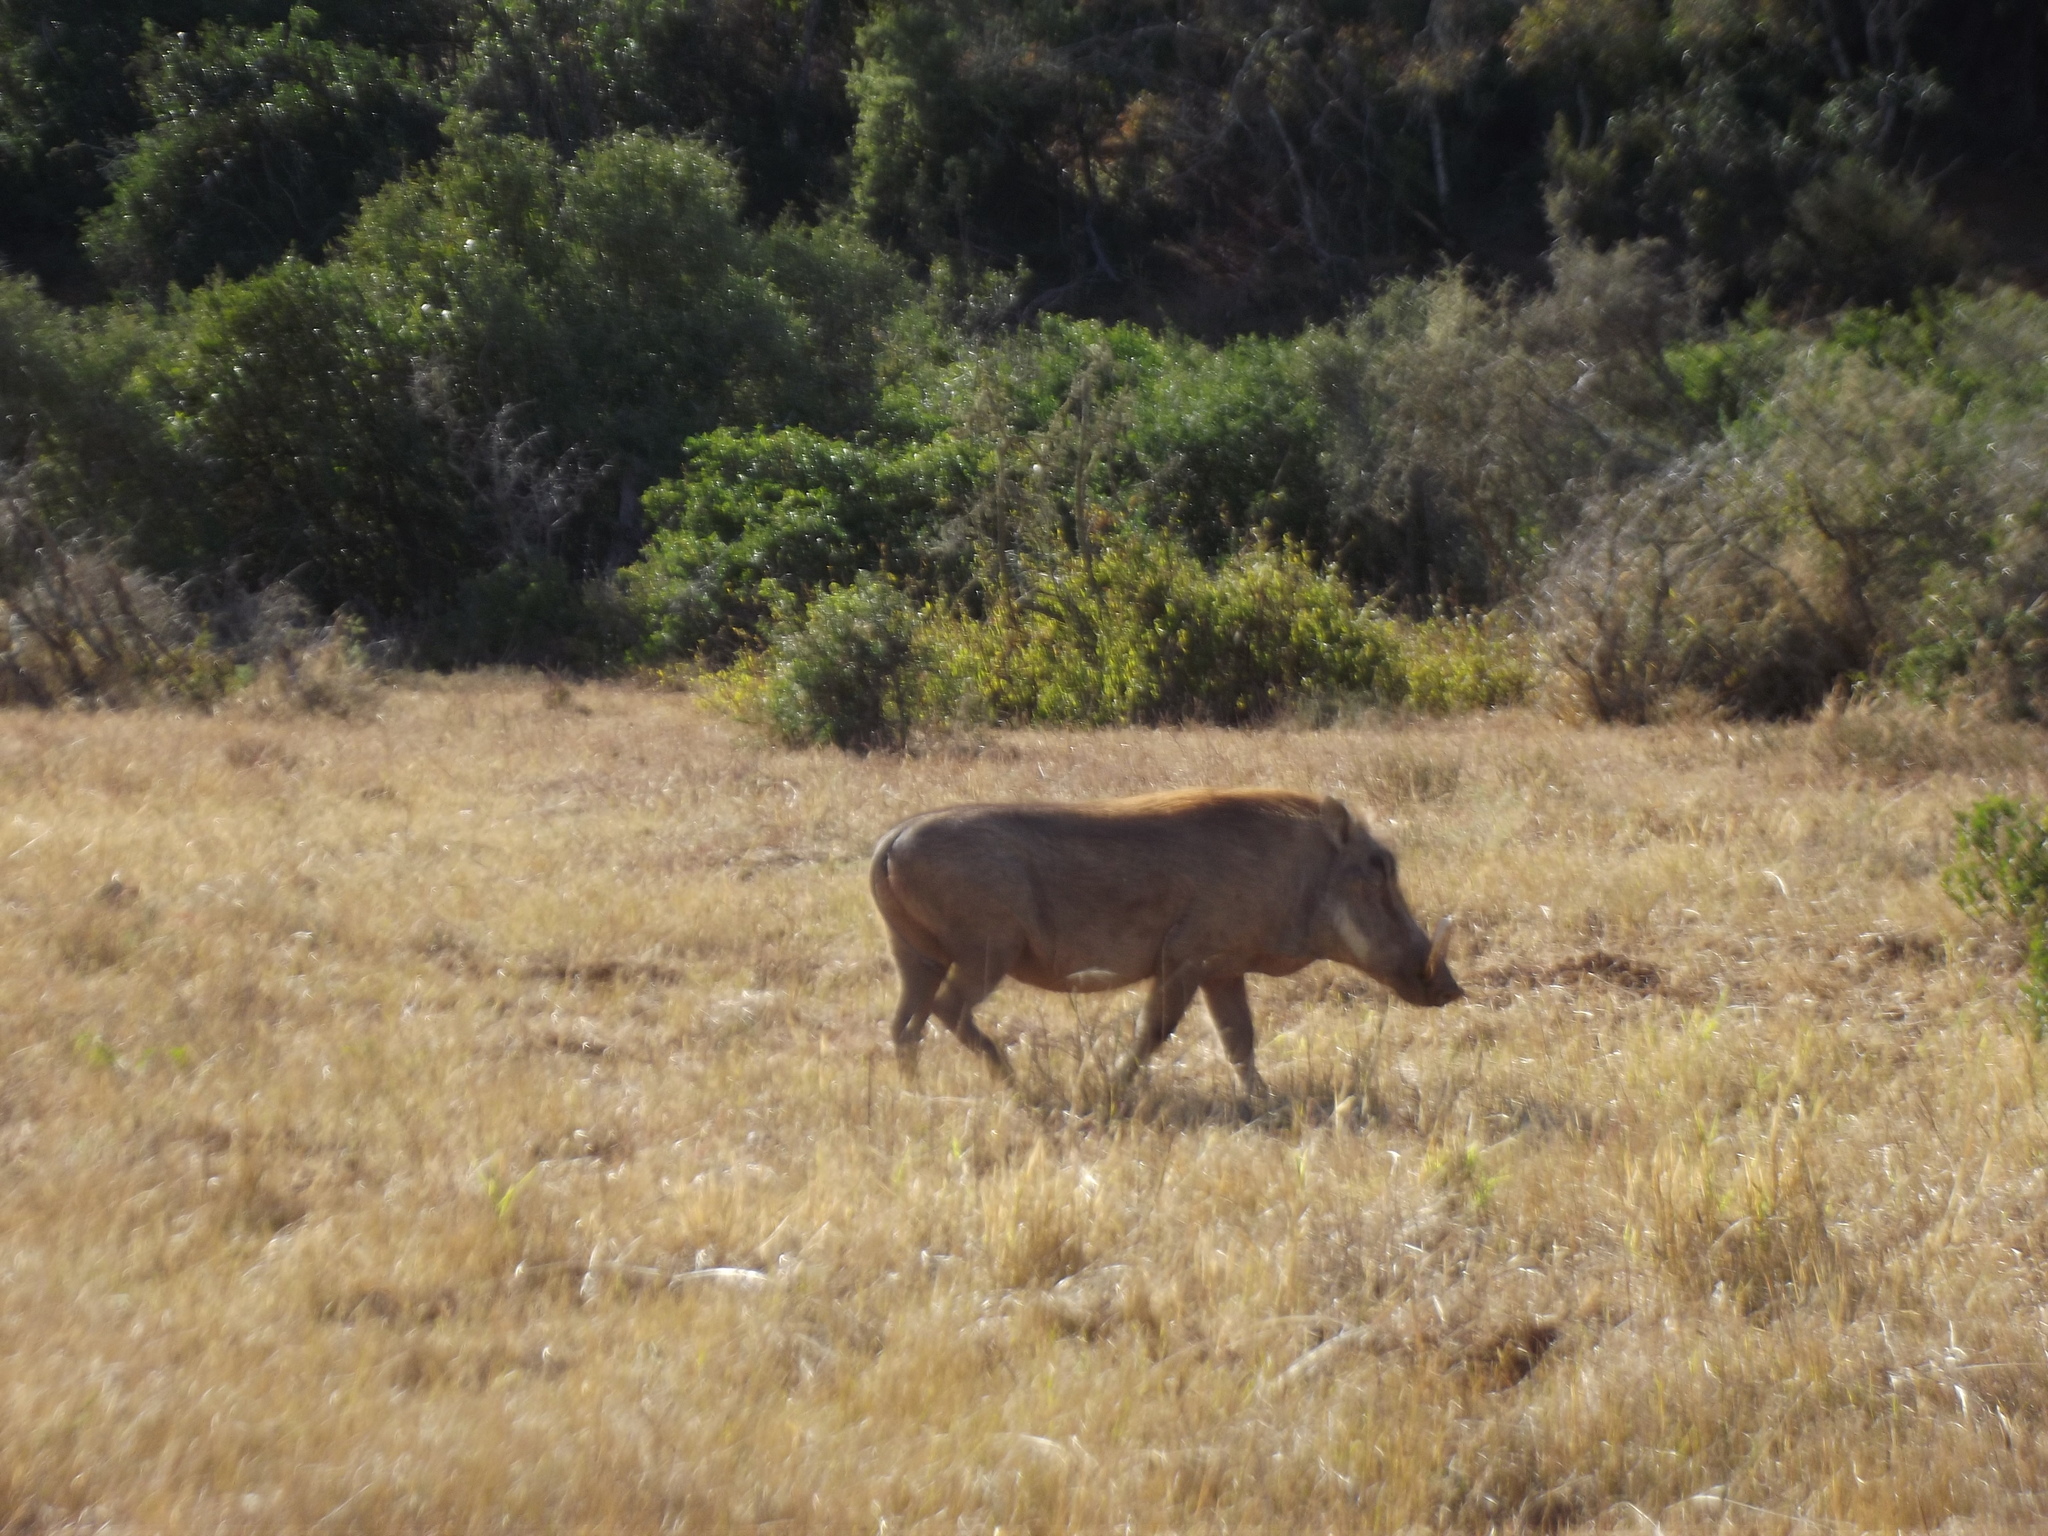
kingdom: Animalia
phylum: Chordata
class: Mammalia
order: Artiodactyla
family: Suidae
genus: Phacochoerus
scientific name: Phacochoerus africanus
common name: Common warthog
